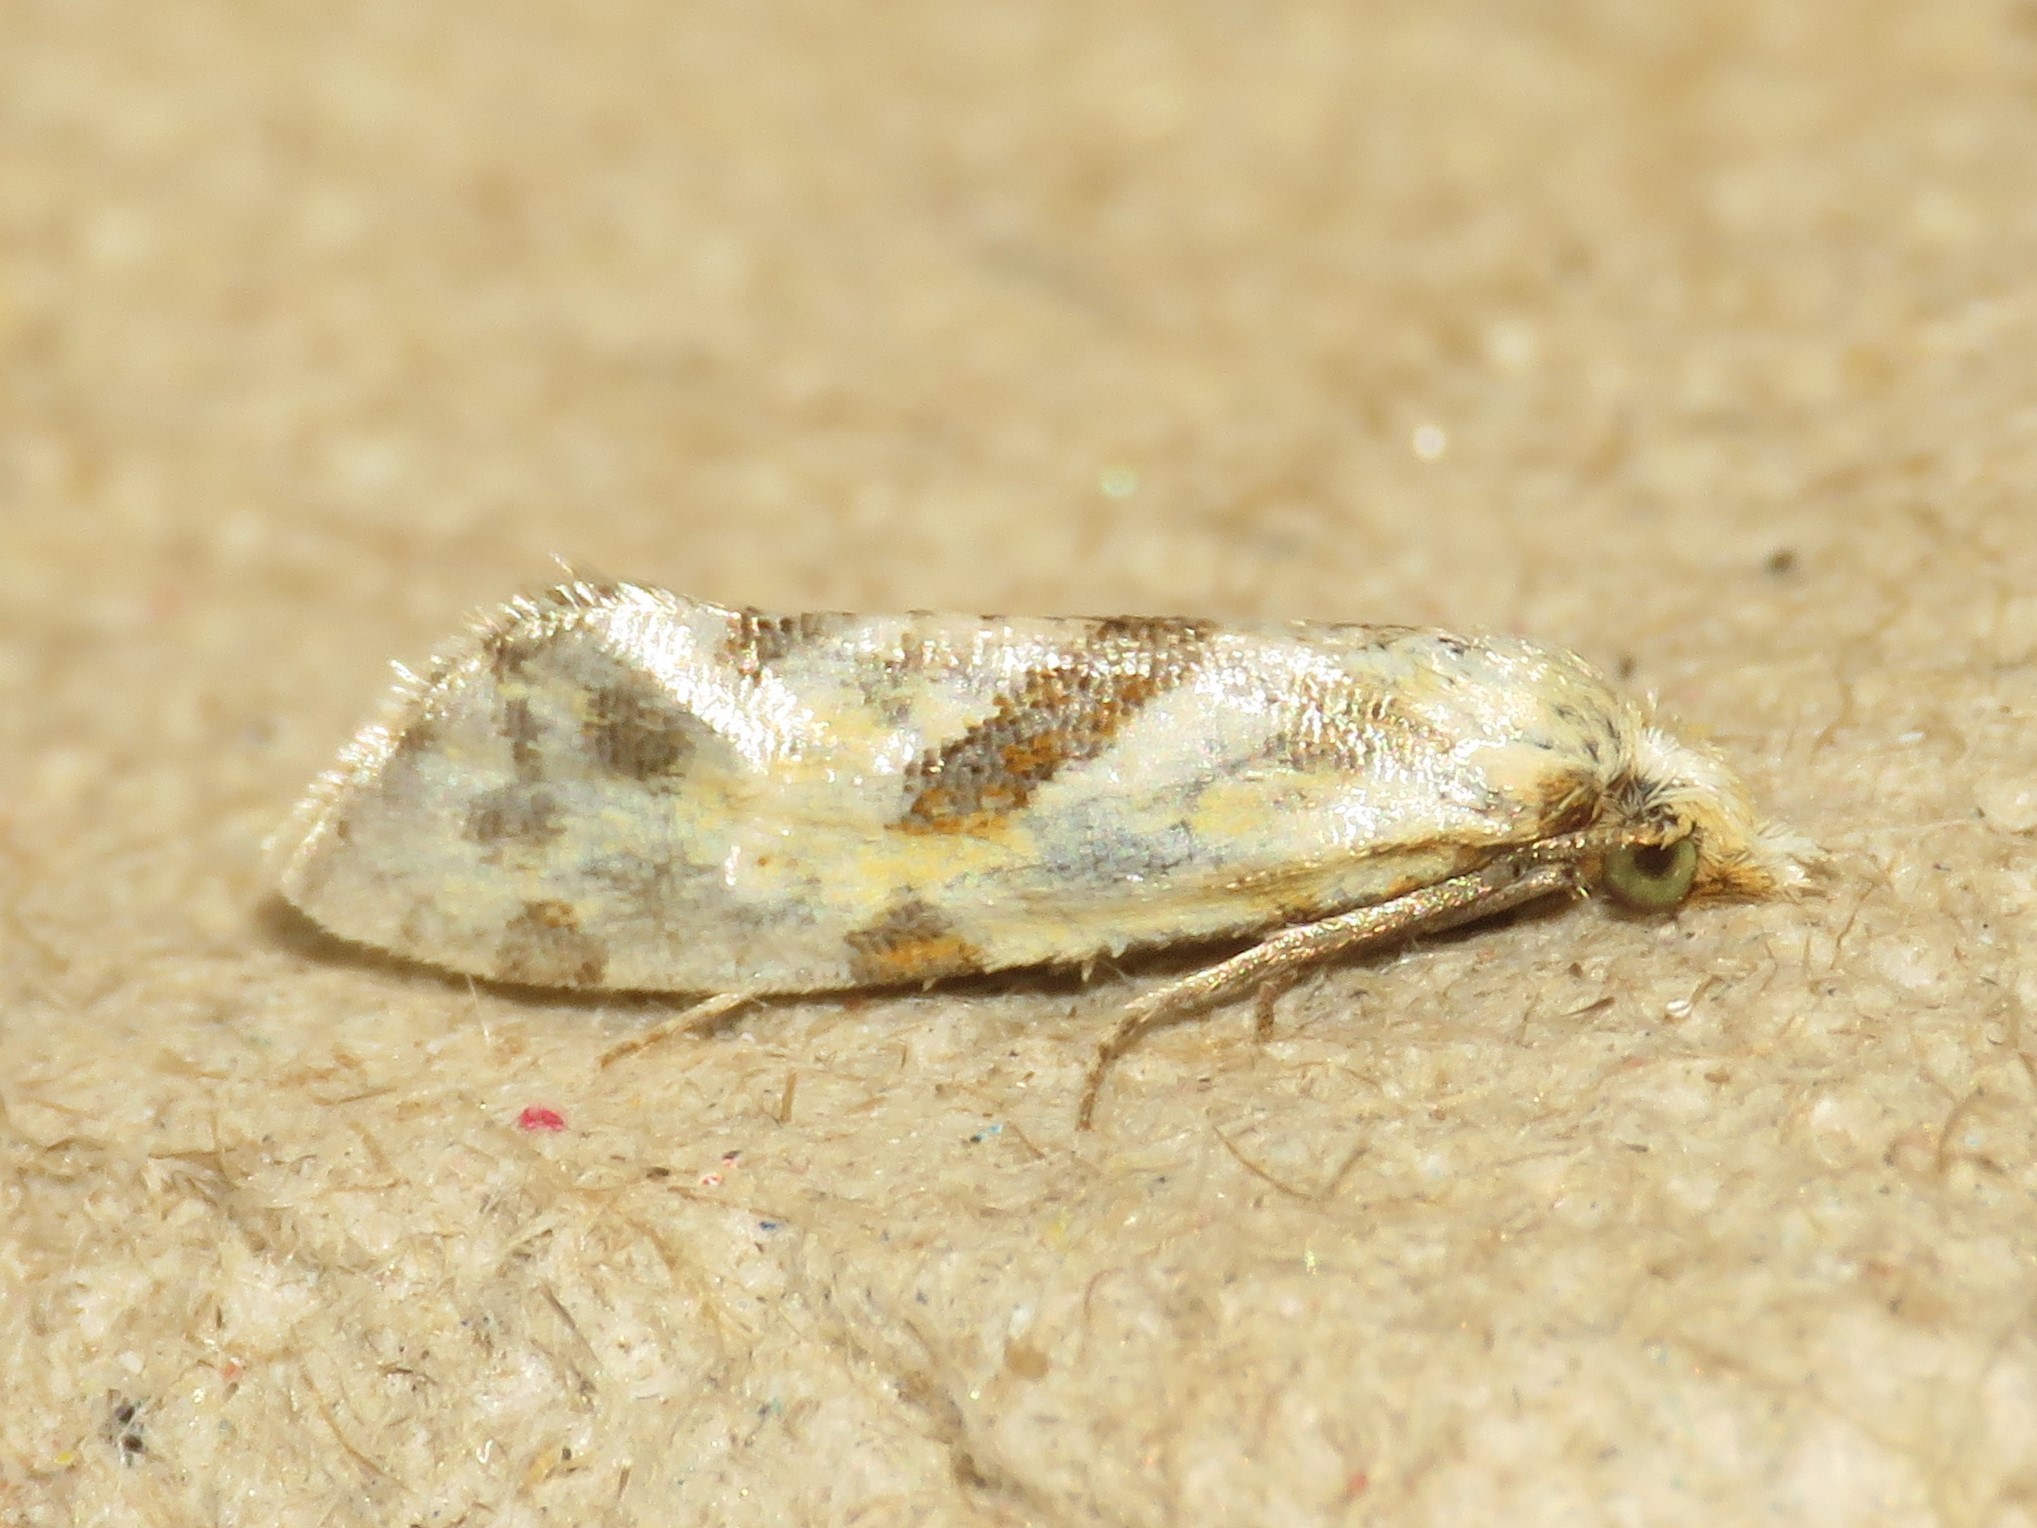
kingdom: Animalia
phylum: Arthropoda
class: Insecta
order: Lepidoptera
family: Tortricidae
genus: Aethes
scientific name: Aethes smeathmanniana
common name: Yarrow conch
